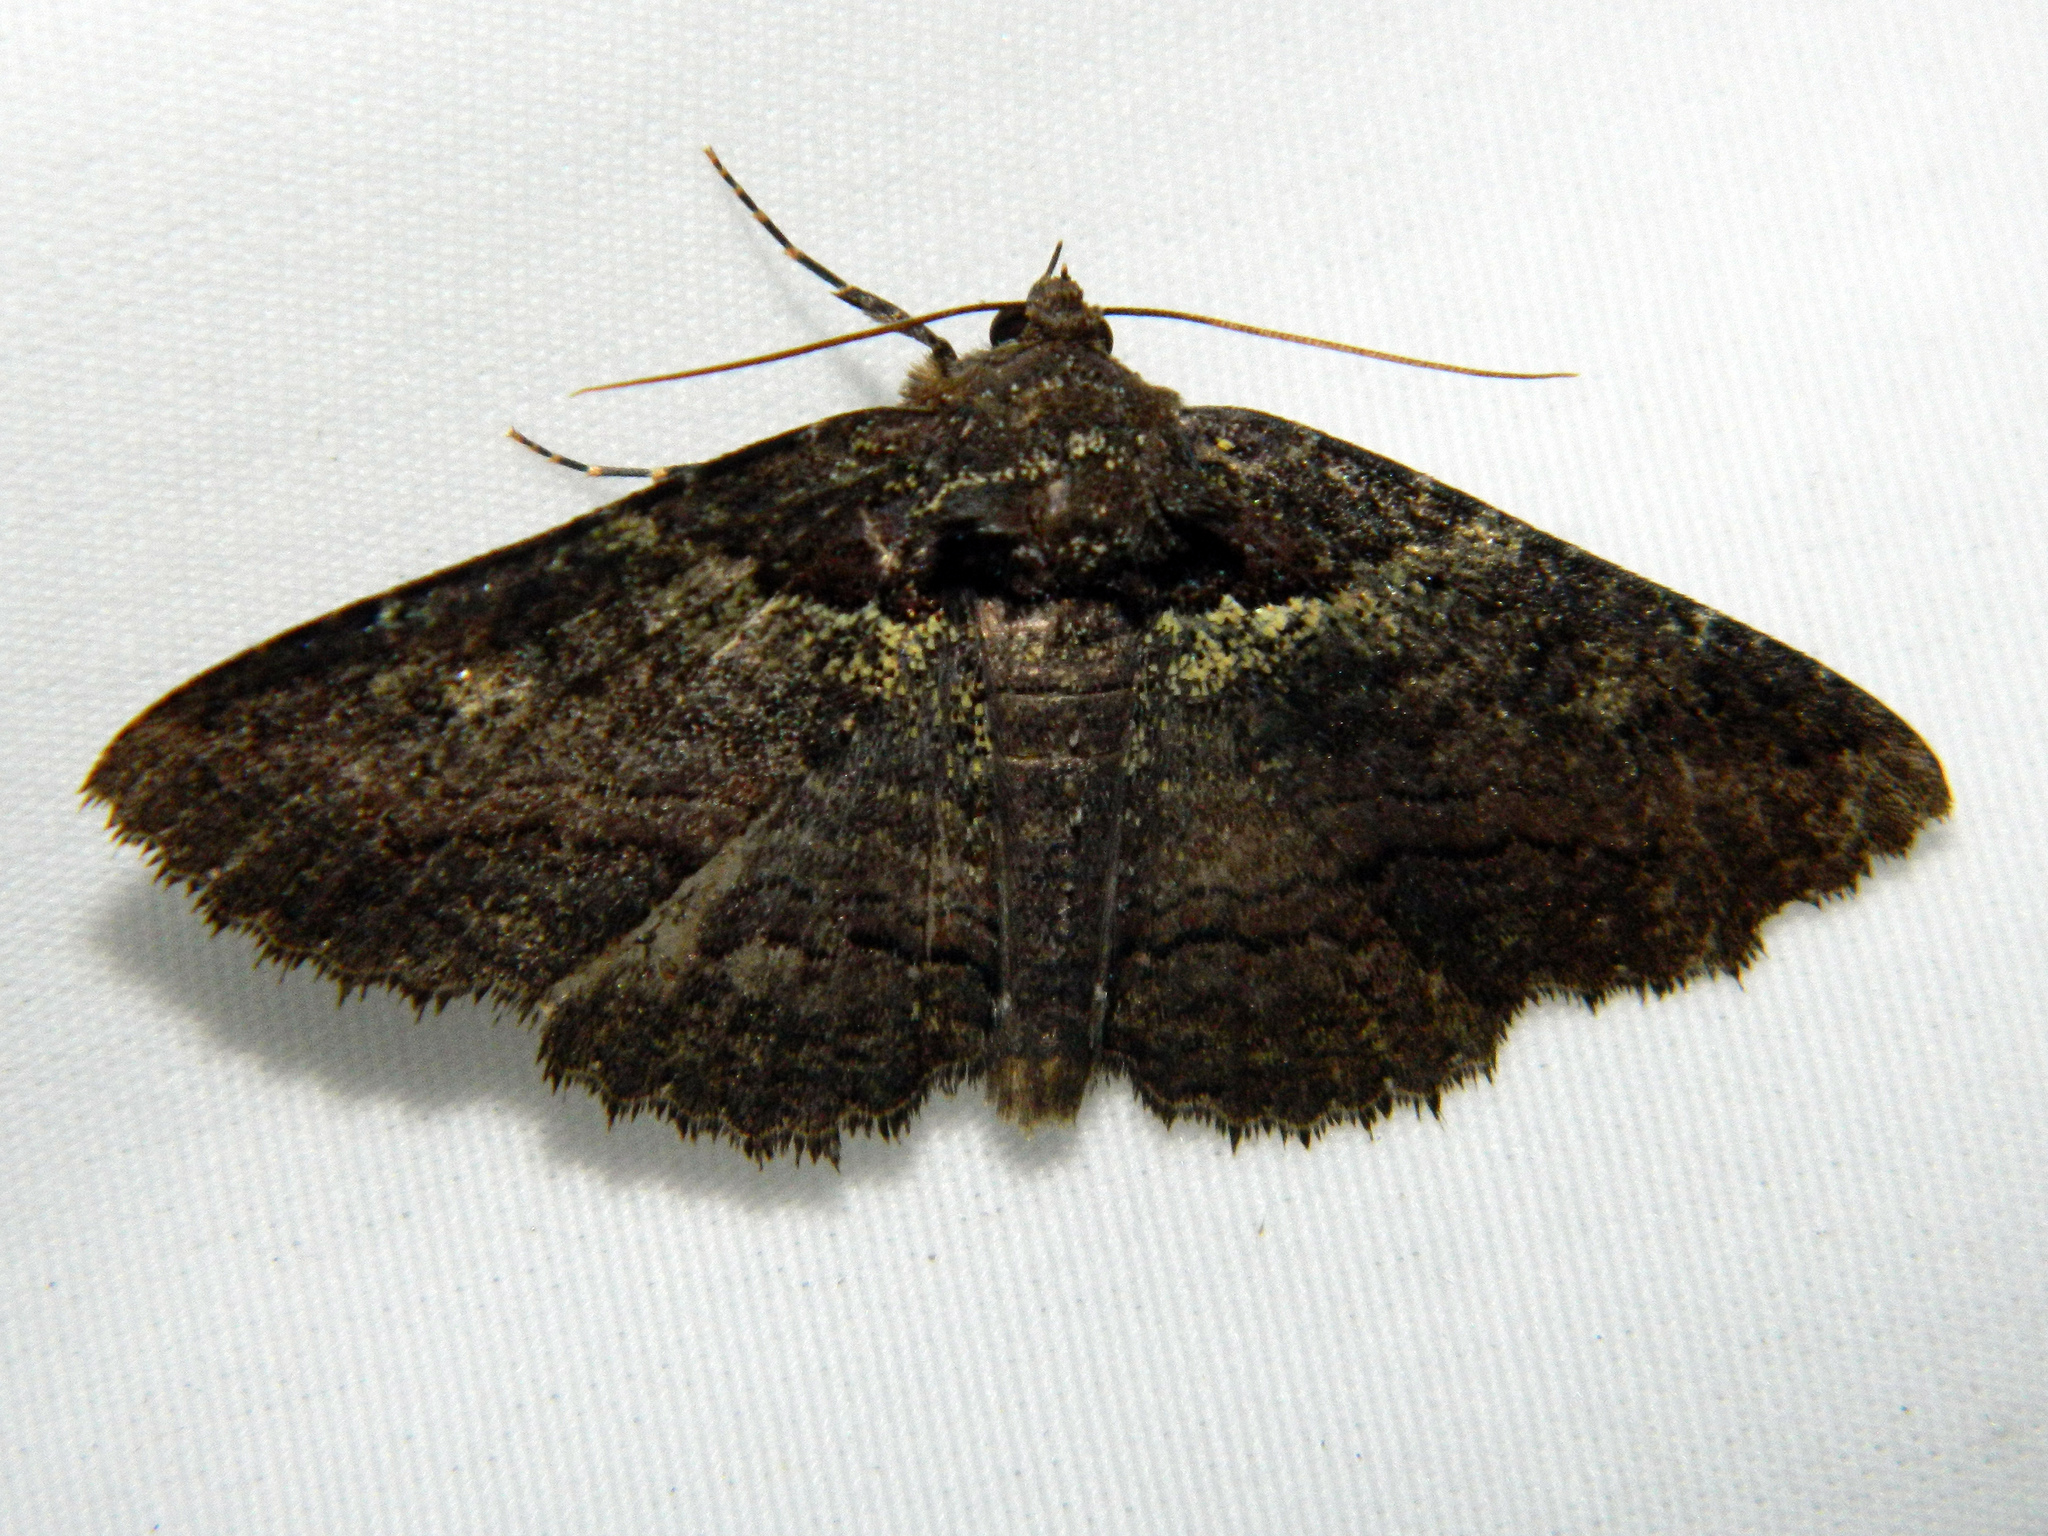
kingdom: Animalia
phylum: Arthropoda
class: Insecta
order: Lepidoptera
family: Erebidae
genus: Zale
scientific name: Zale aeruginosa
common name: Green-dusted zale moth
